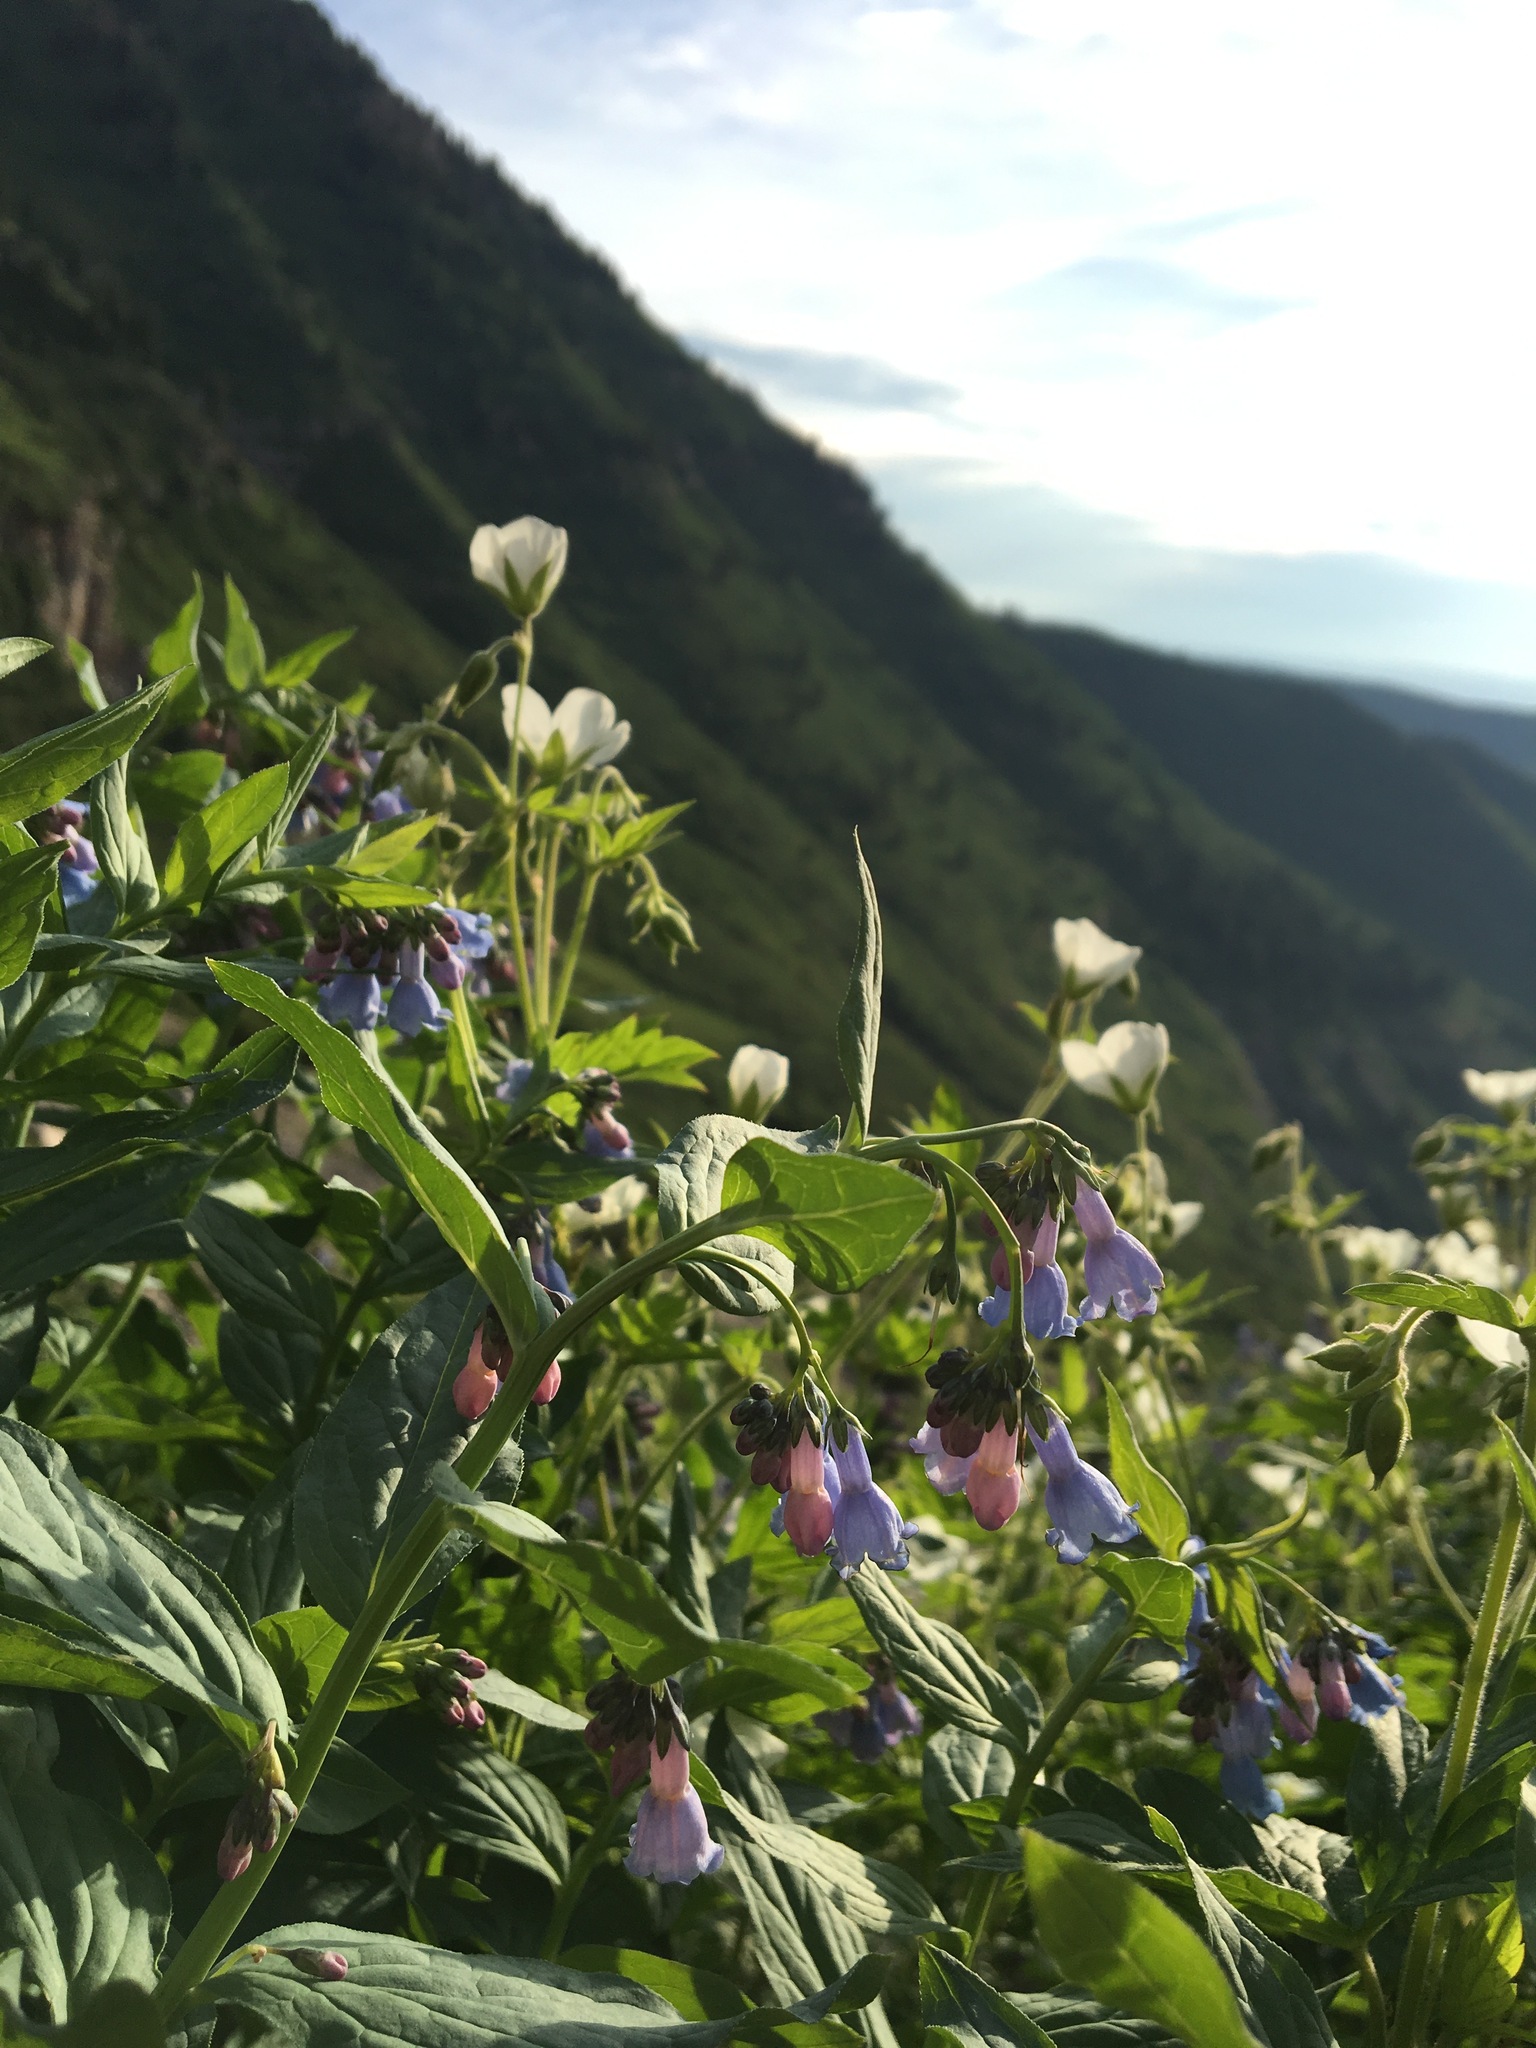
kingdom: Plantae
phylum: Tracheophyta
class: Magnoliopsida
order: Boraginales
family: Boraginaceae
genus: Mertensia
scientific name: Mertensia ciliata
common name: Tall chiming-bells
